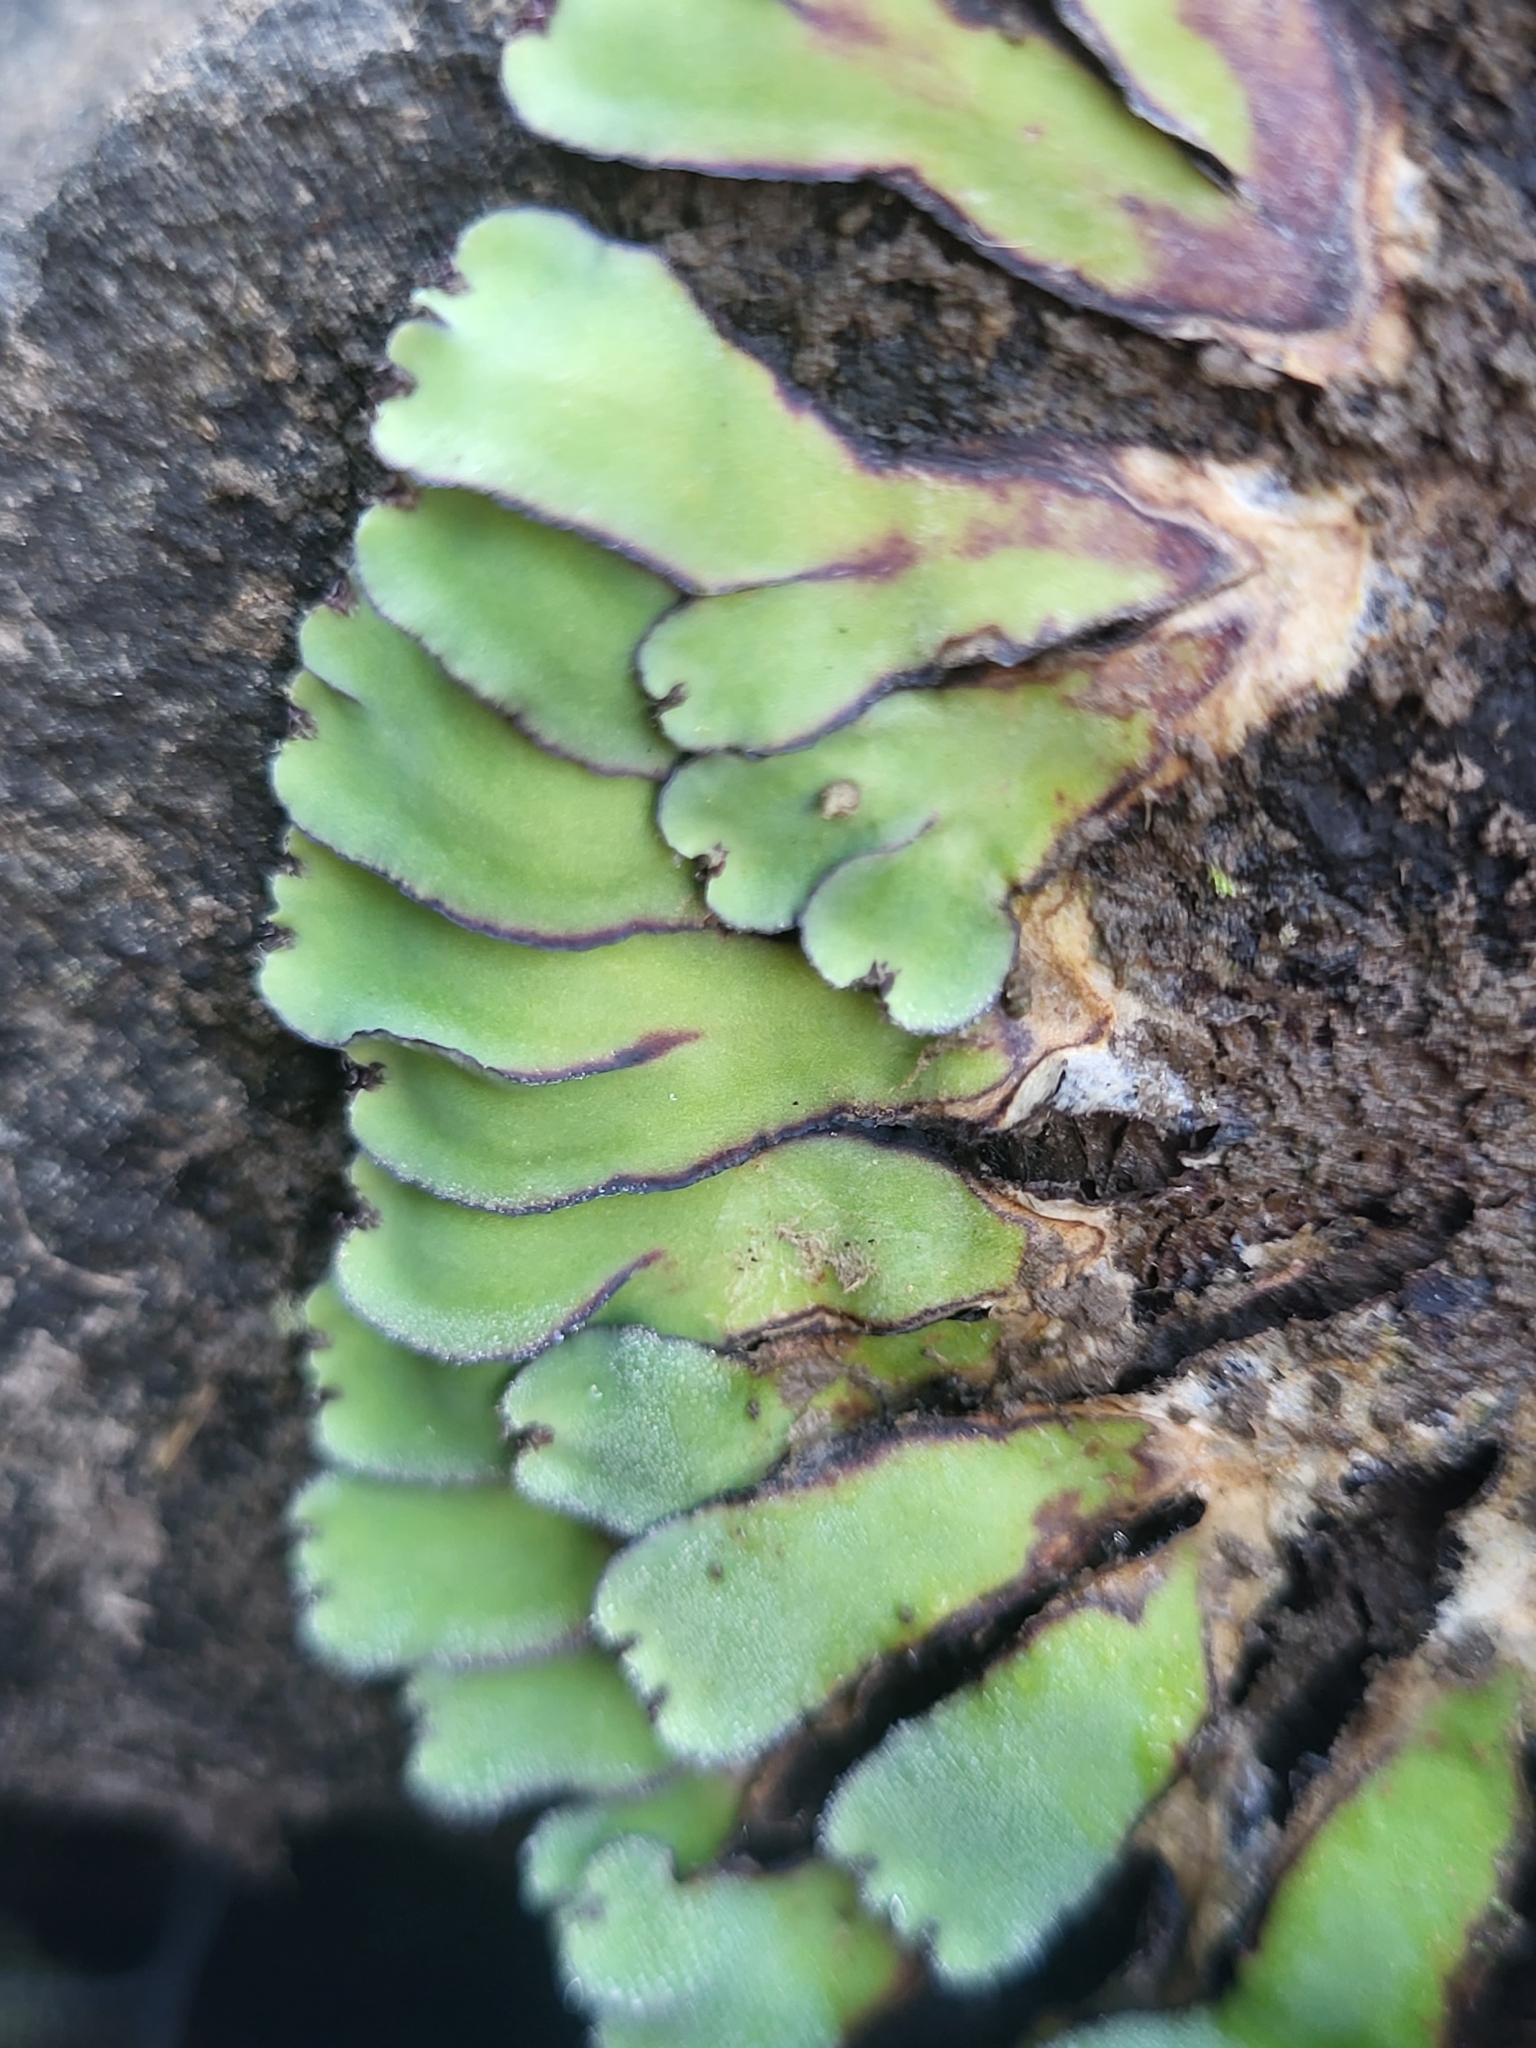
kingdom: Plantae
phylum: Marchantiophyta
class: Marchantiopsida
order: Marchantiales
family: Aytoniaceae
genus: Plagiochasma
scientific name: Plagiochasma rupestre
